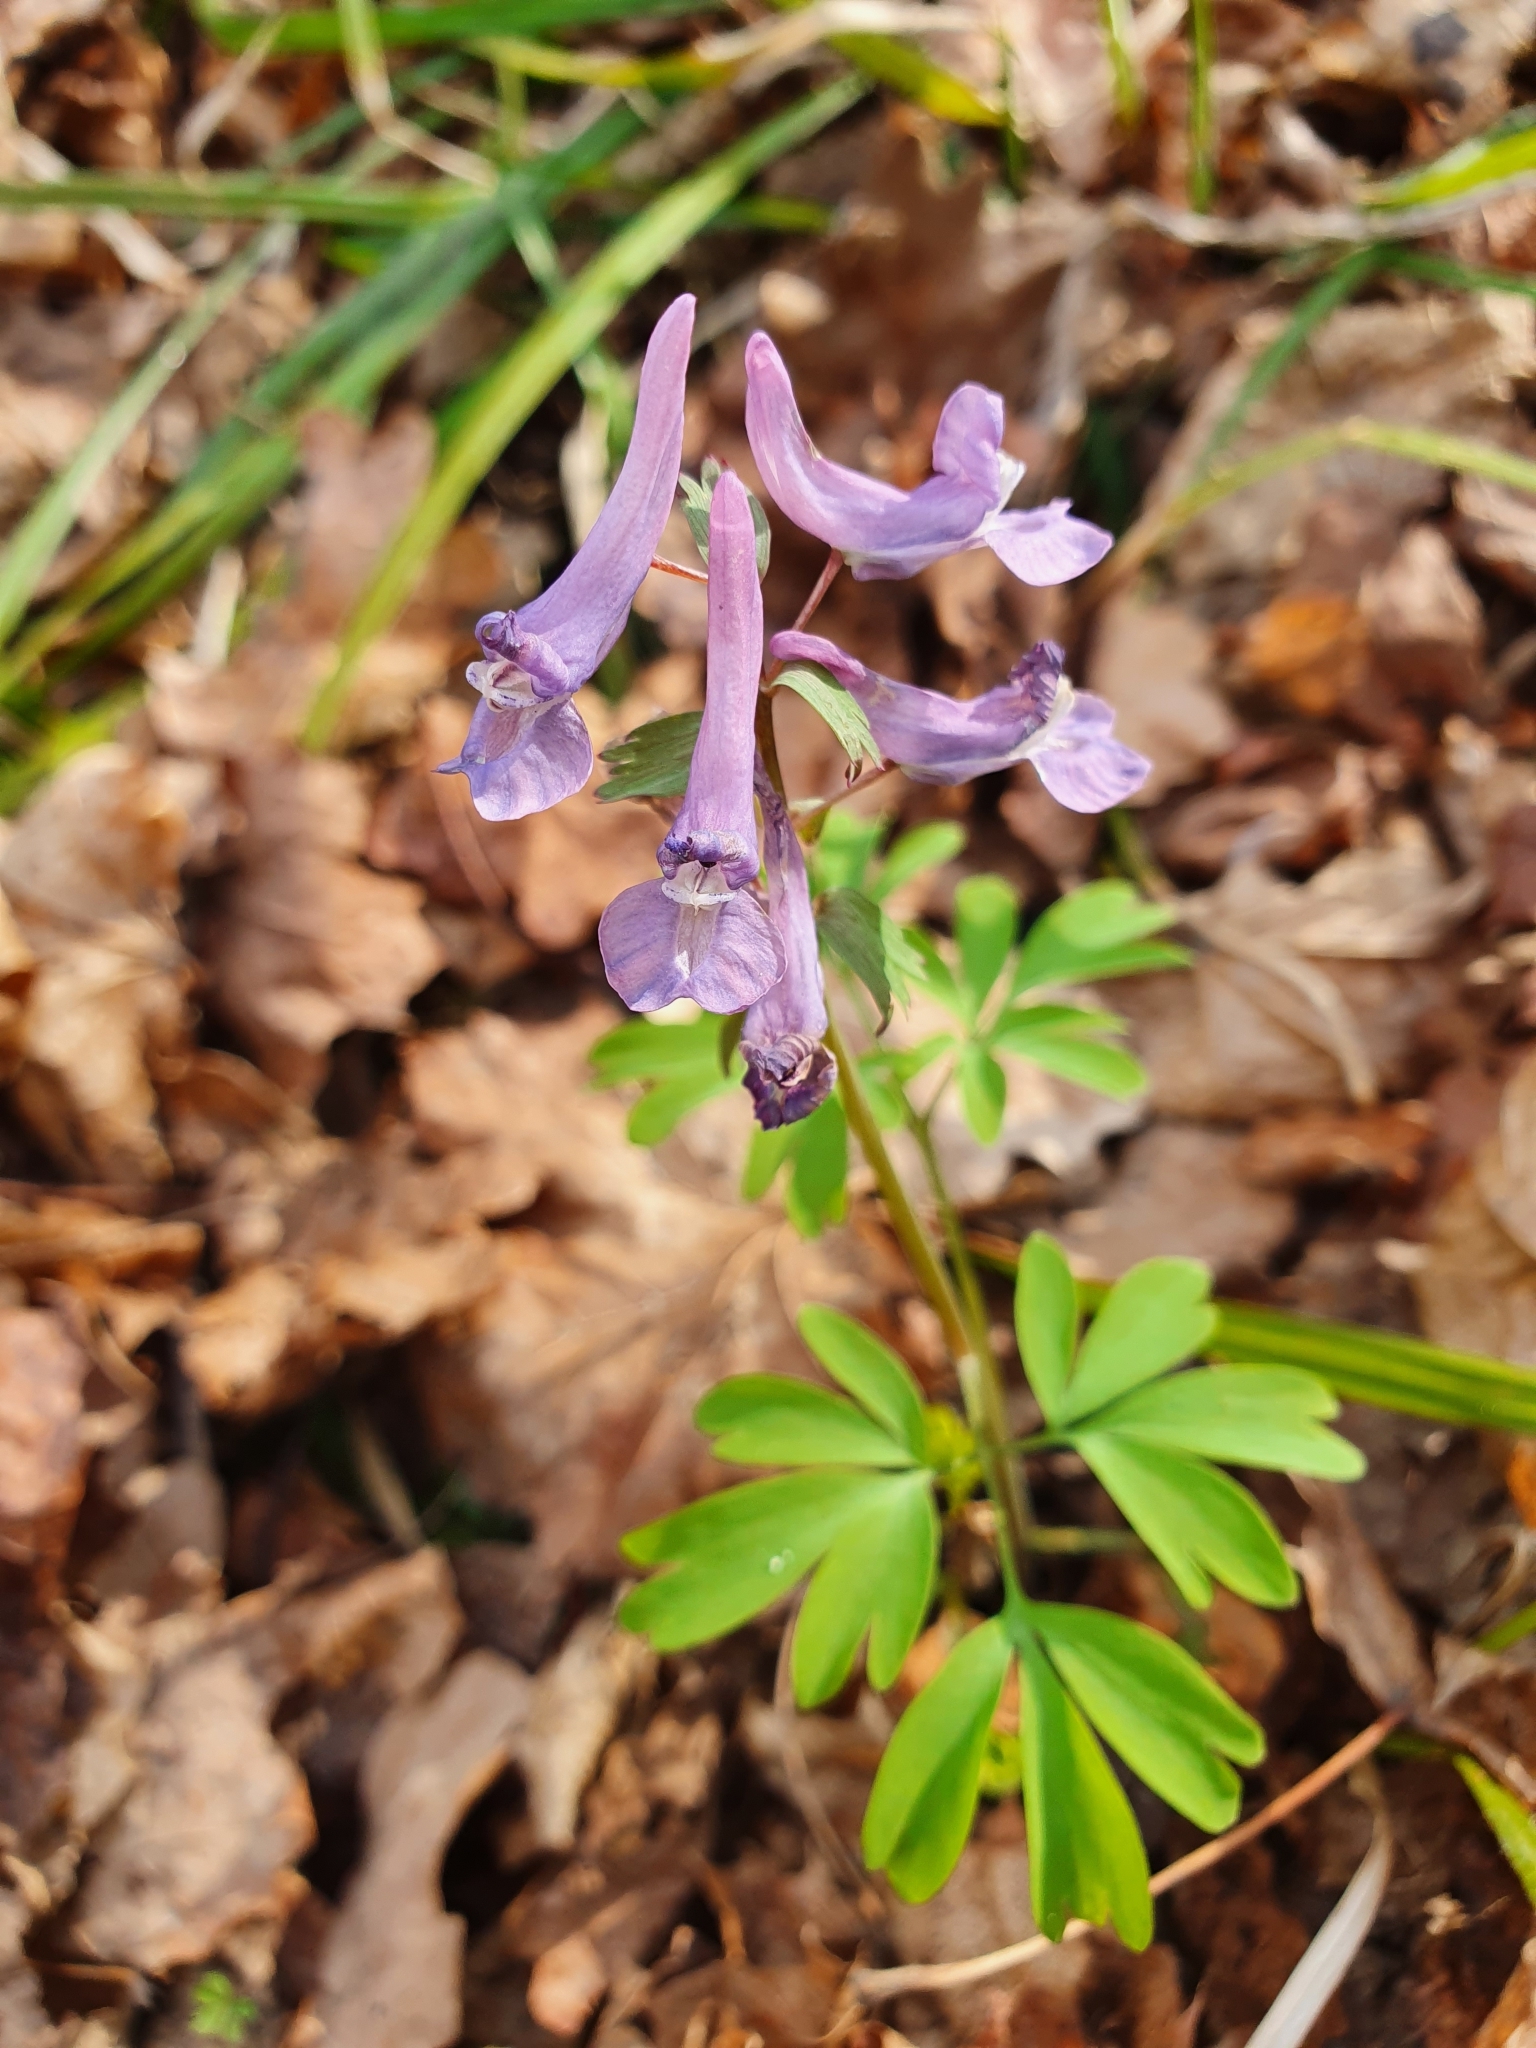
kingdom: Plantae
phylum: Tracheophyta
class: Magnoliopsida
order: Ranunculales
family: Papaveraceae
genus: Corydalis
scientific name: Corydalis solida
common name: Bird-in-a-bush
